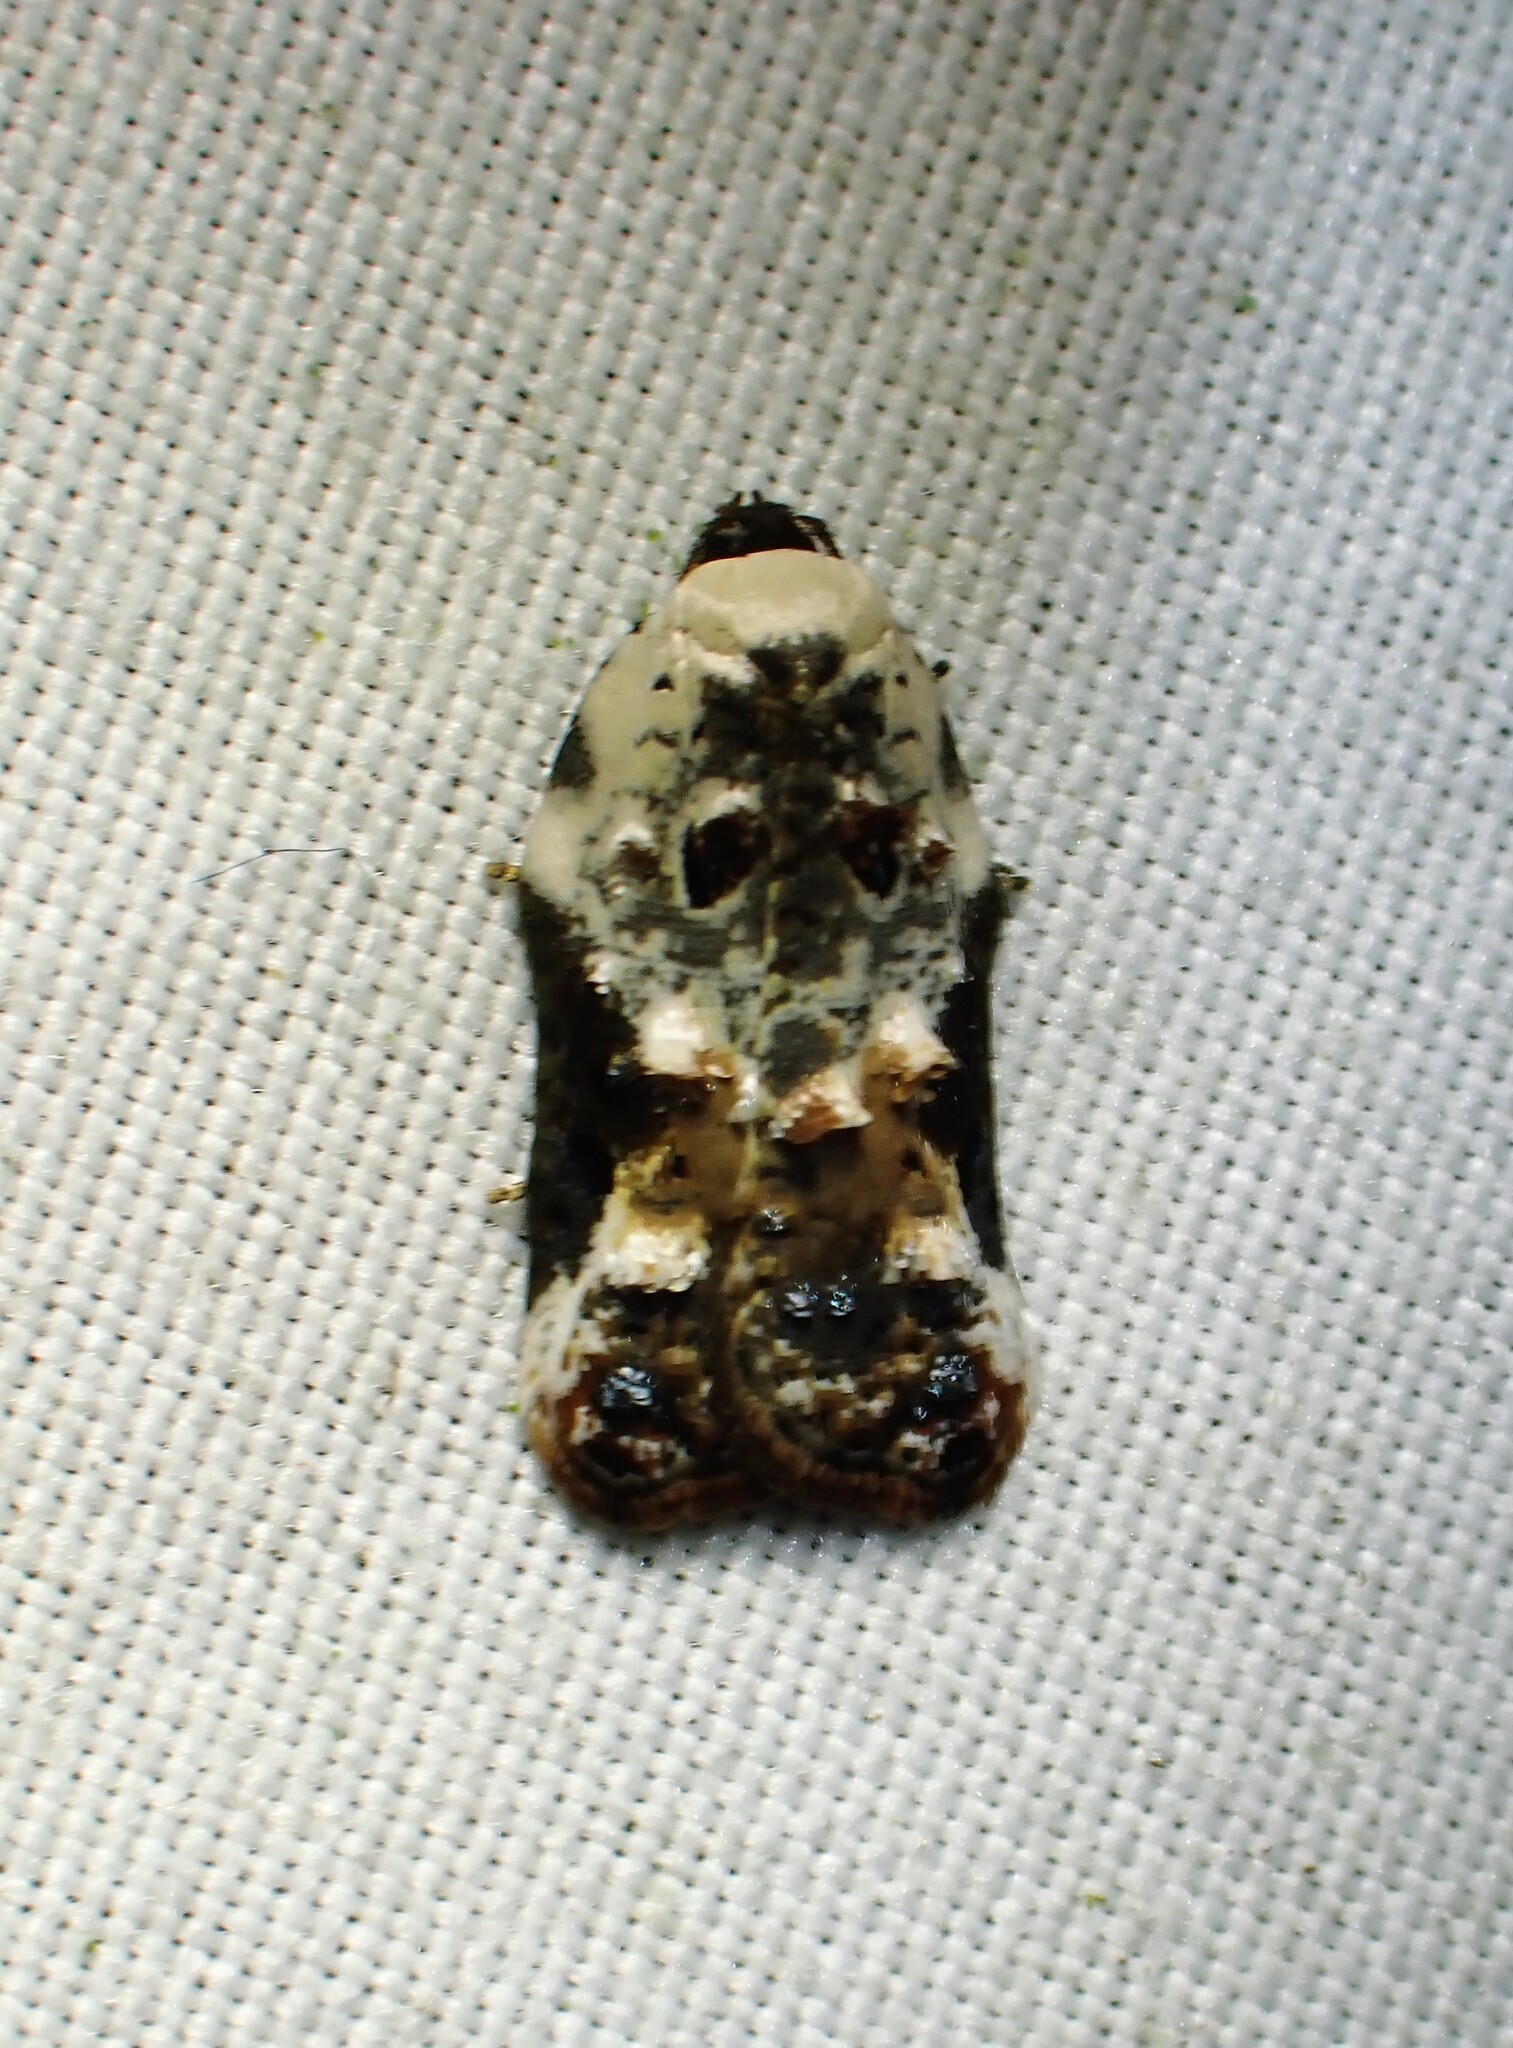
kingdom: Animalia
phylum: Arthropoda
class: Insecta
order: Lepidoptera
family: Tortricidae
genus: Acleris
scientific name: Acleris nivisellana
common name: Snowy-shouldered acleris moth
